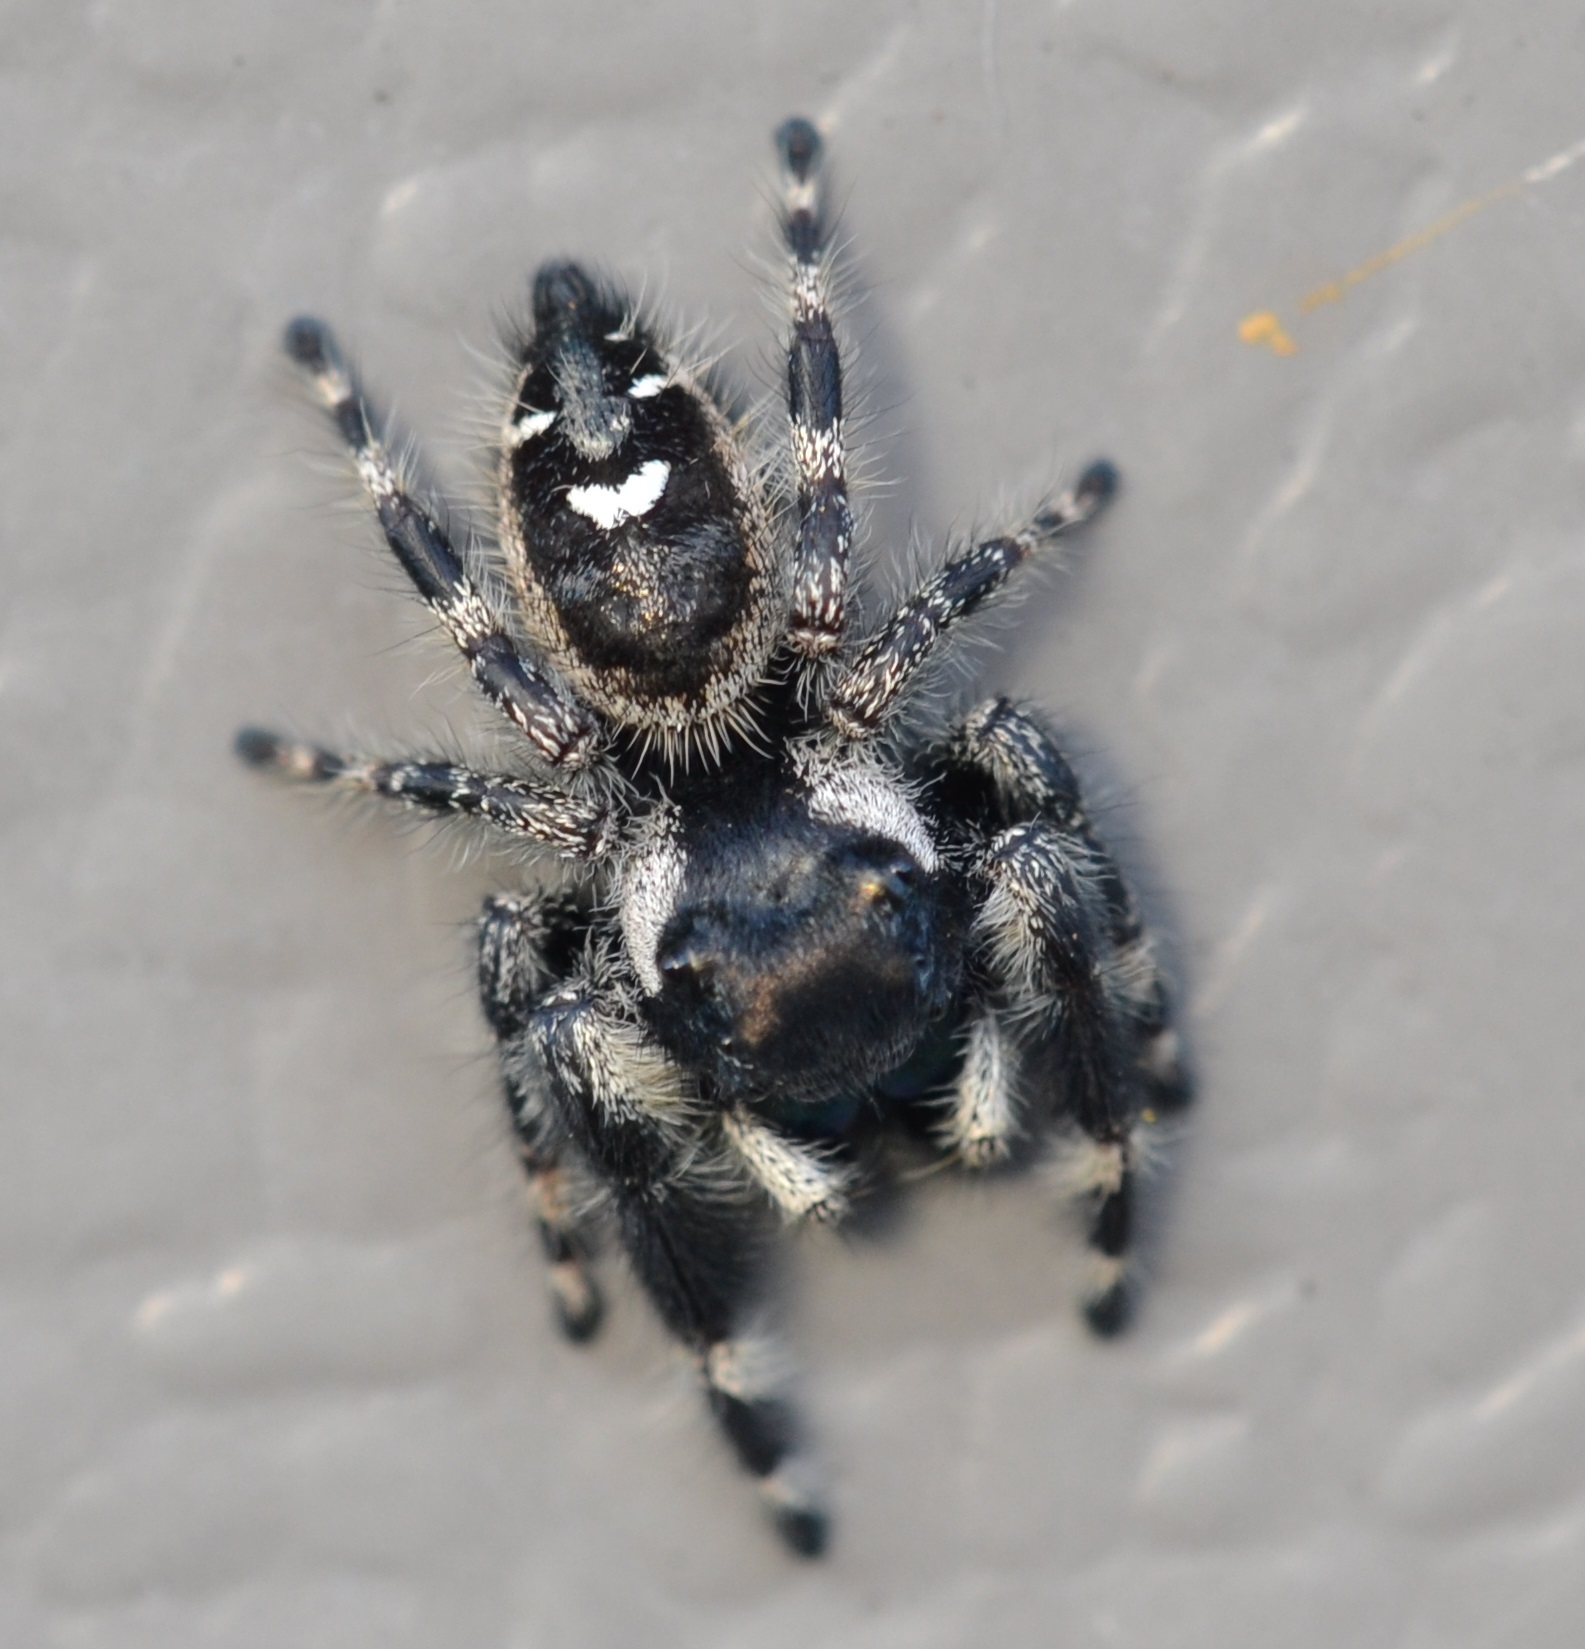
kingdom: Animalia
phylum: Arthropoda
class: Arachnida
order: Araneae
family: Salticidae
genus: Phidippus
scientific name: Phidippus audax
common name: Bold jumper
